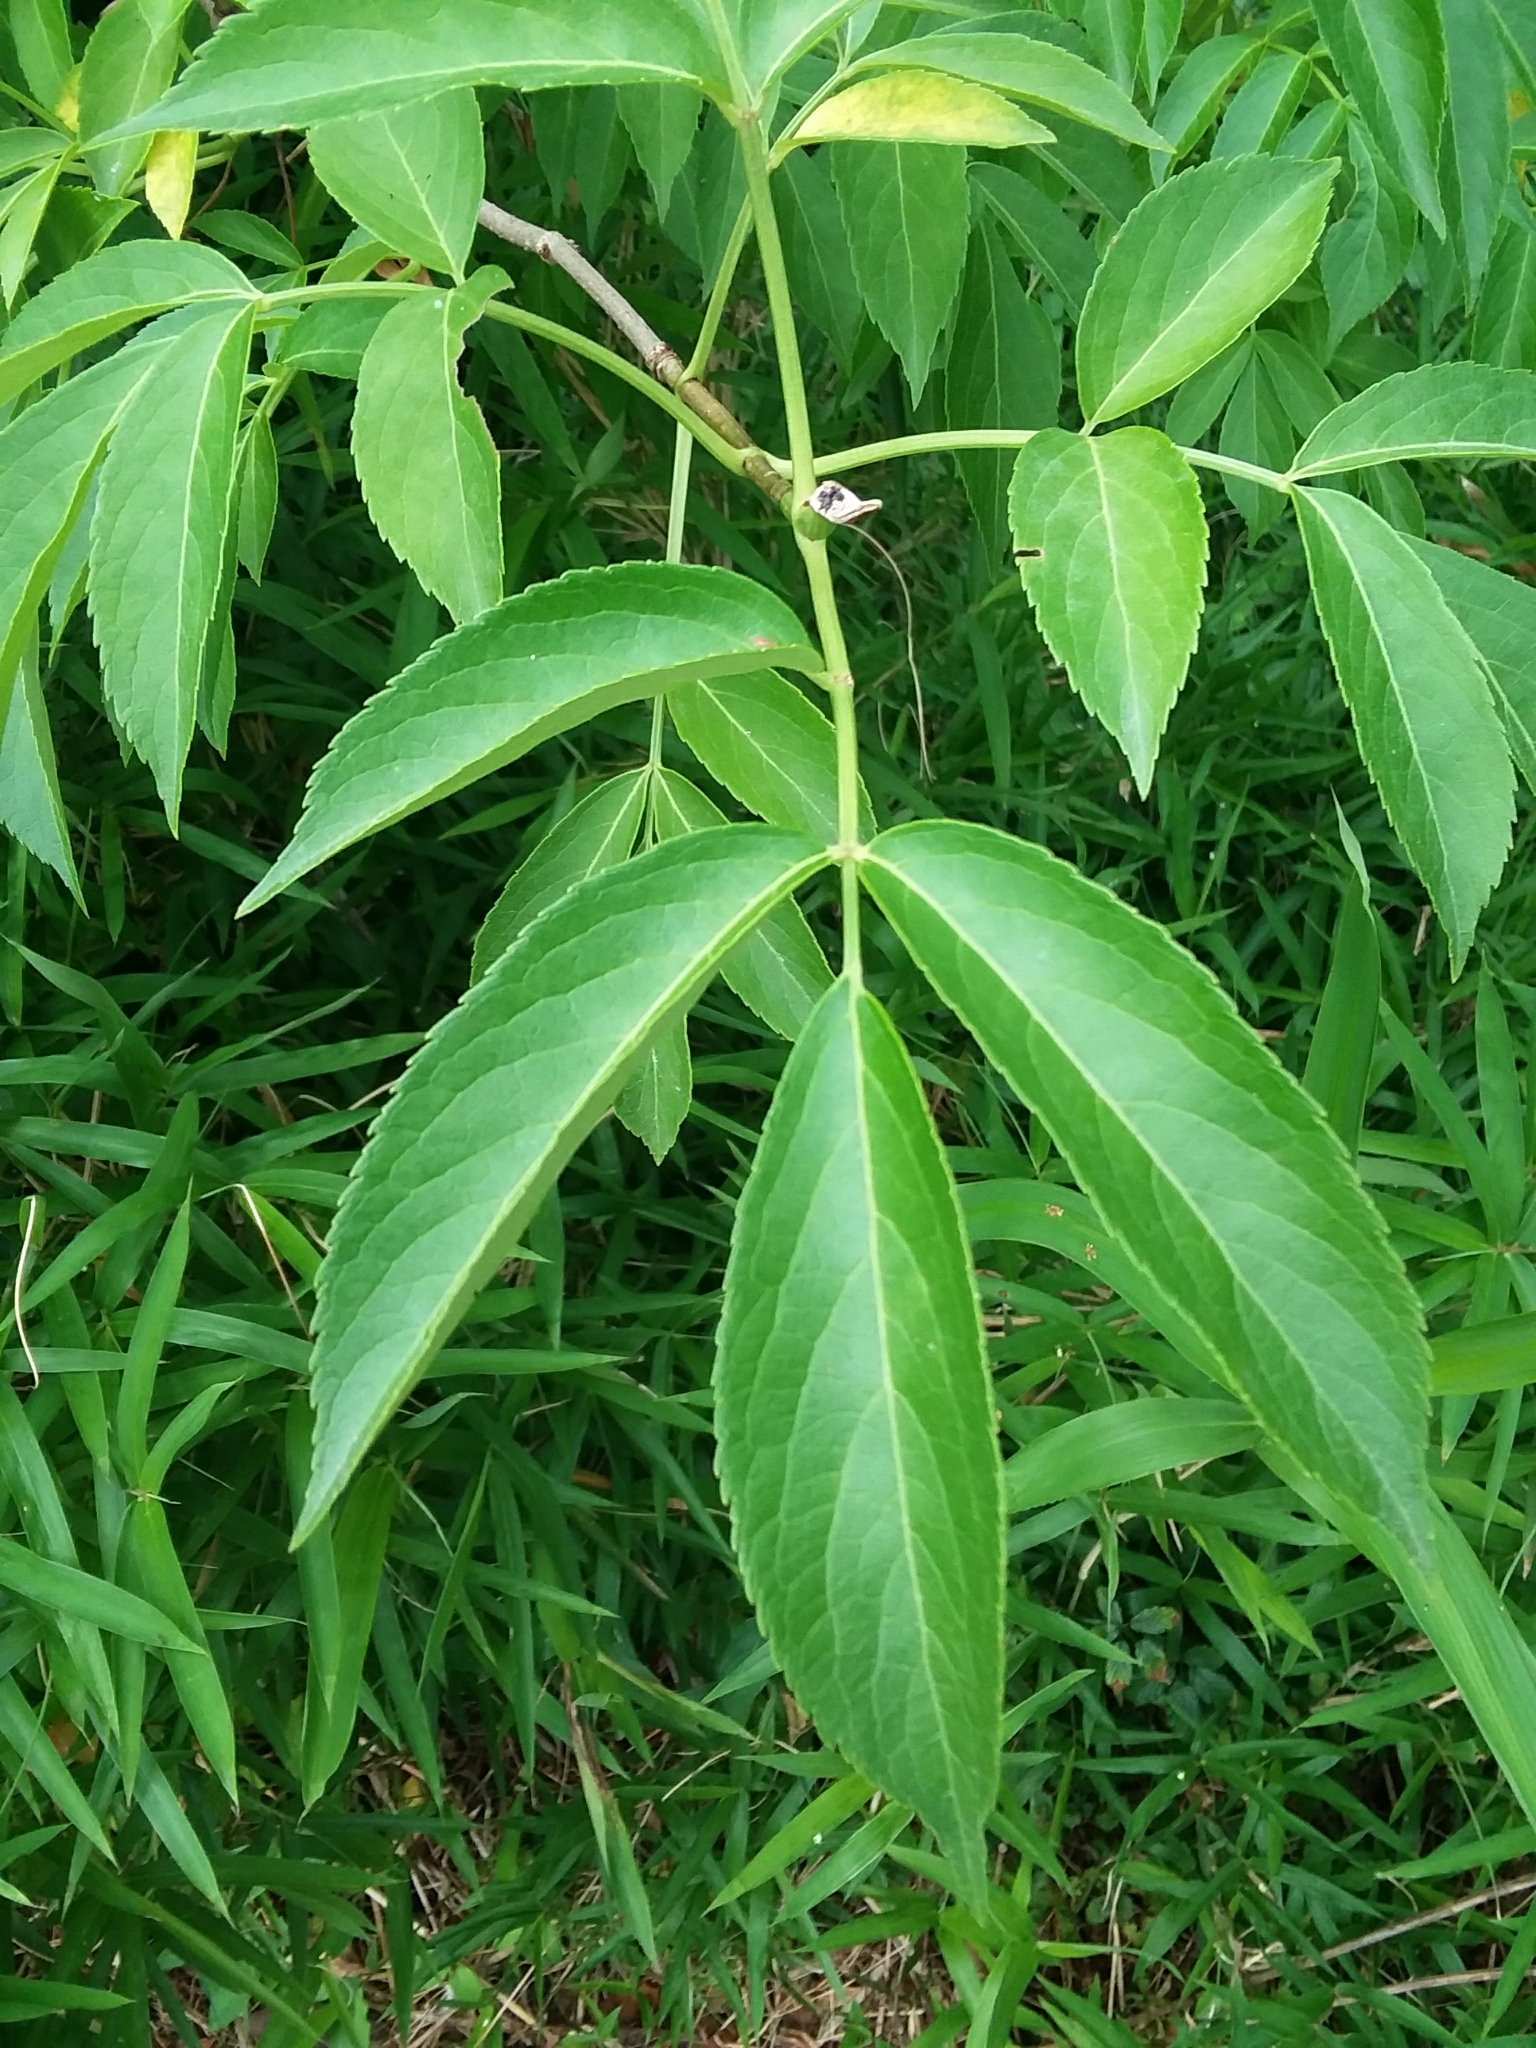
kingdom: Plantae
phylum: Tracheophyta
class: Magnoliopsida
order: Dipsacales
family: Viburnaceae
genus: Sambucus
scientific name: Sambucus canadensis
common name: American elder
